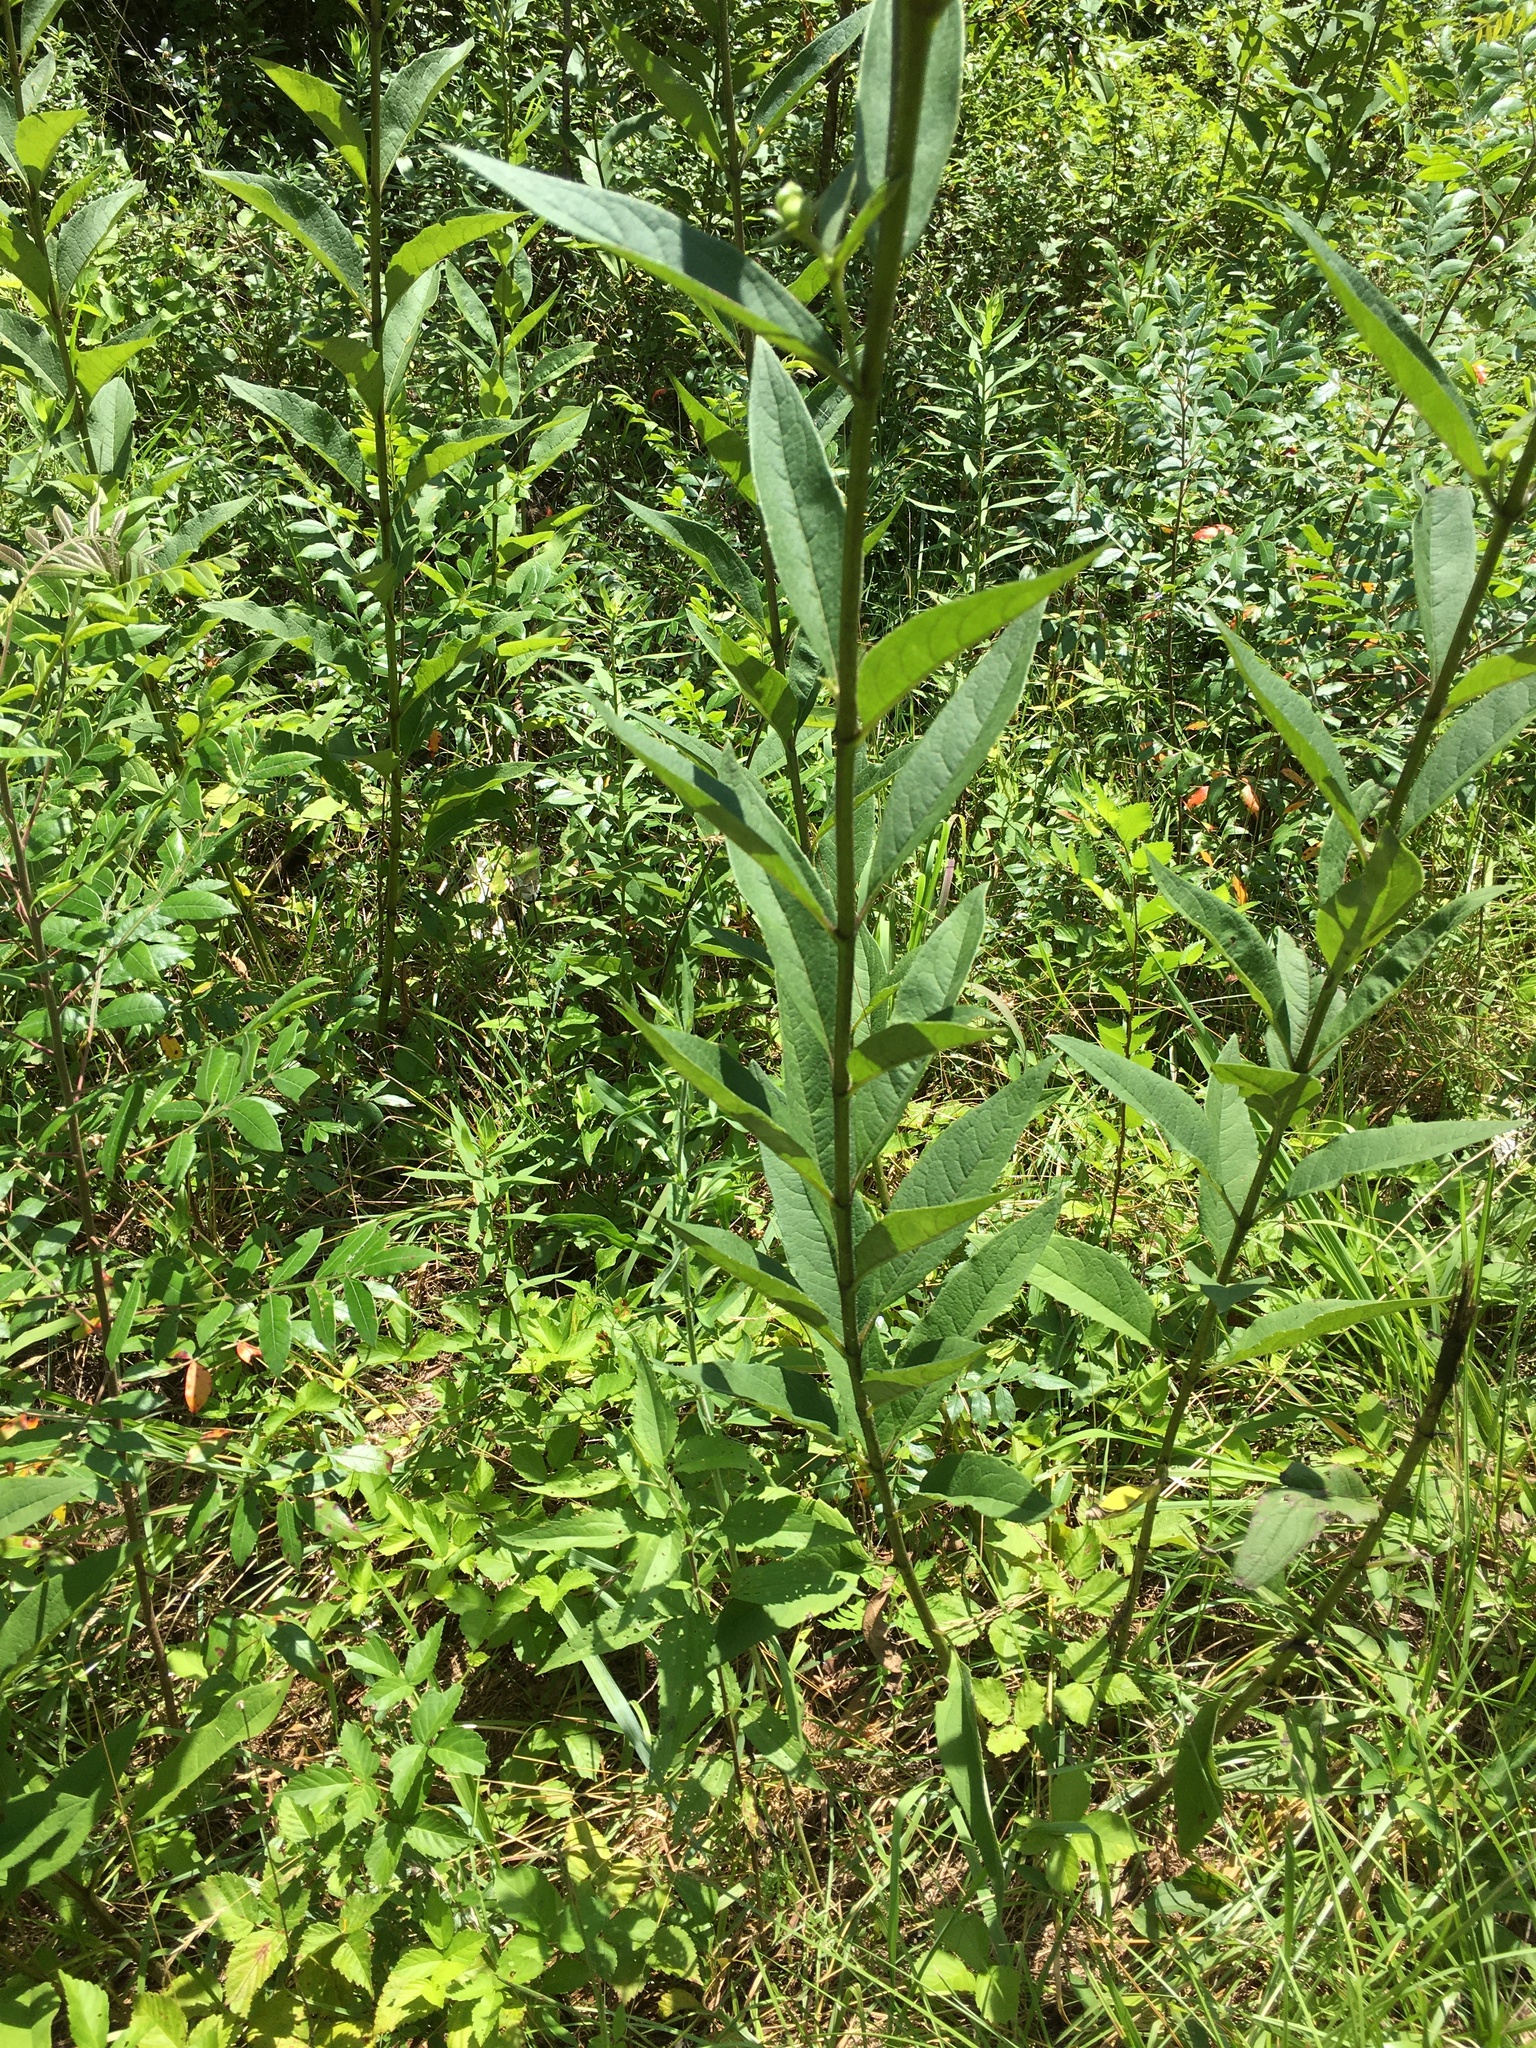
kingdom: Plantae
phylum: Tracheophyta
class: Magnoliopsida
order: Asterales
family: Asteraceae
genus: Silphium
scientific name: Silphium asteriscus
